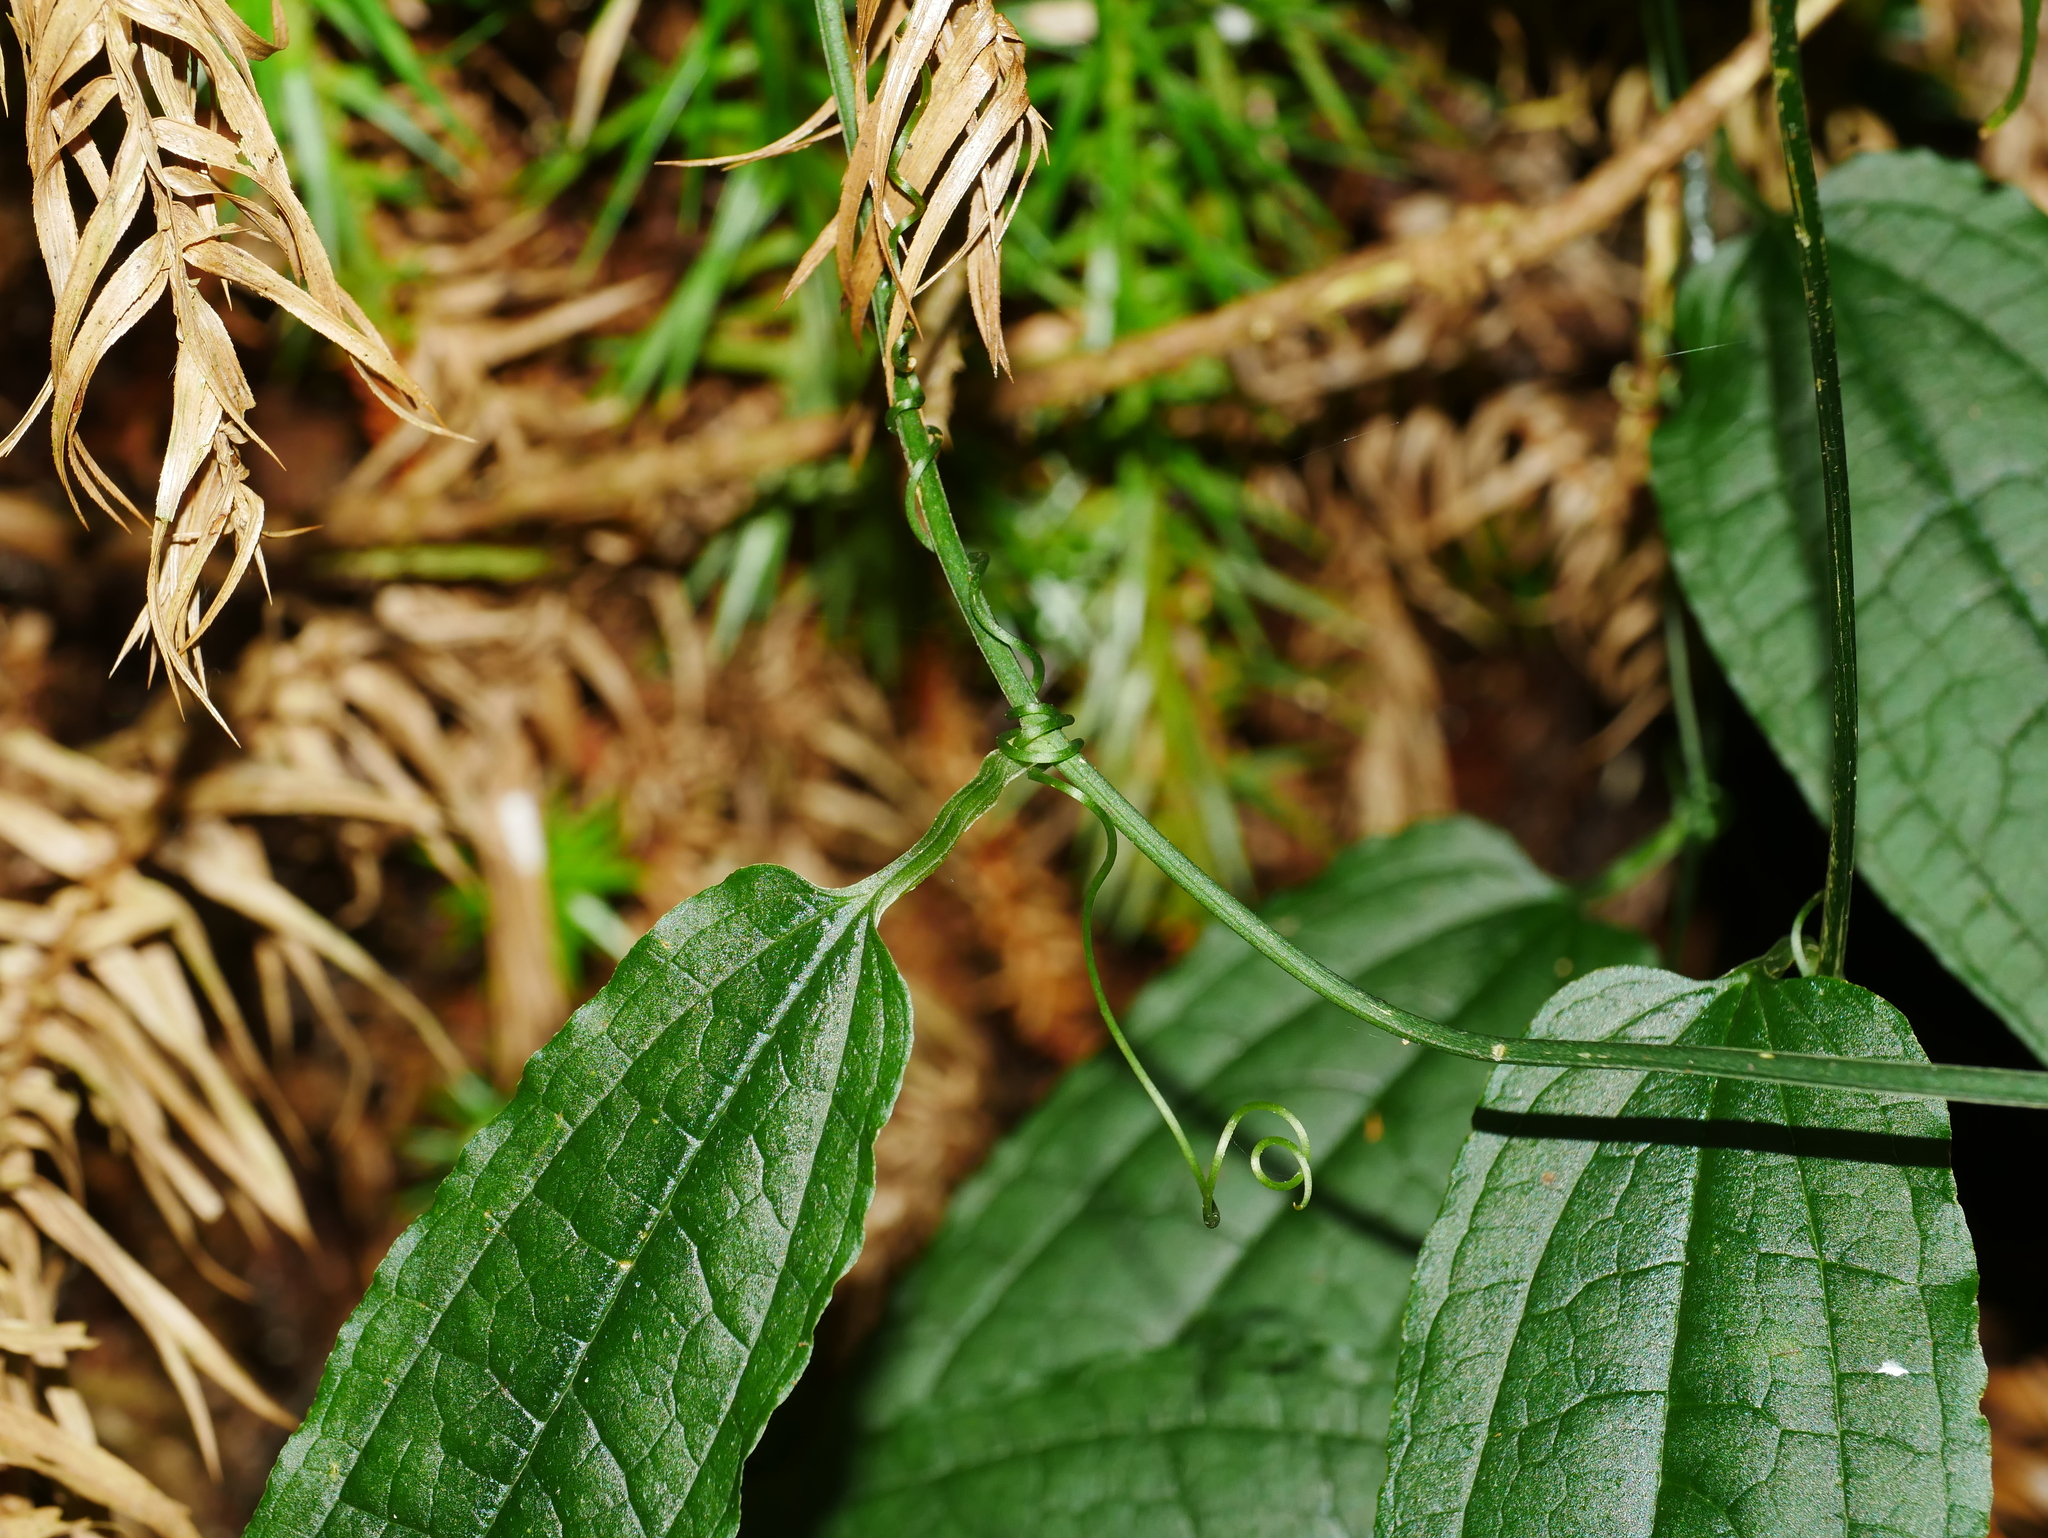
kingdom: Plantae
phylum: Tracheophyta
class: Liliopsida
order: Liliales
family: Smilacaceae
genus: Smilax
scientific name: Smilax riparia
